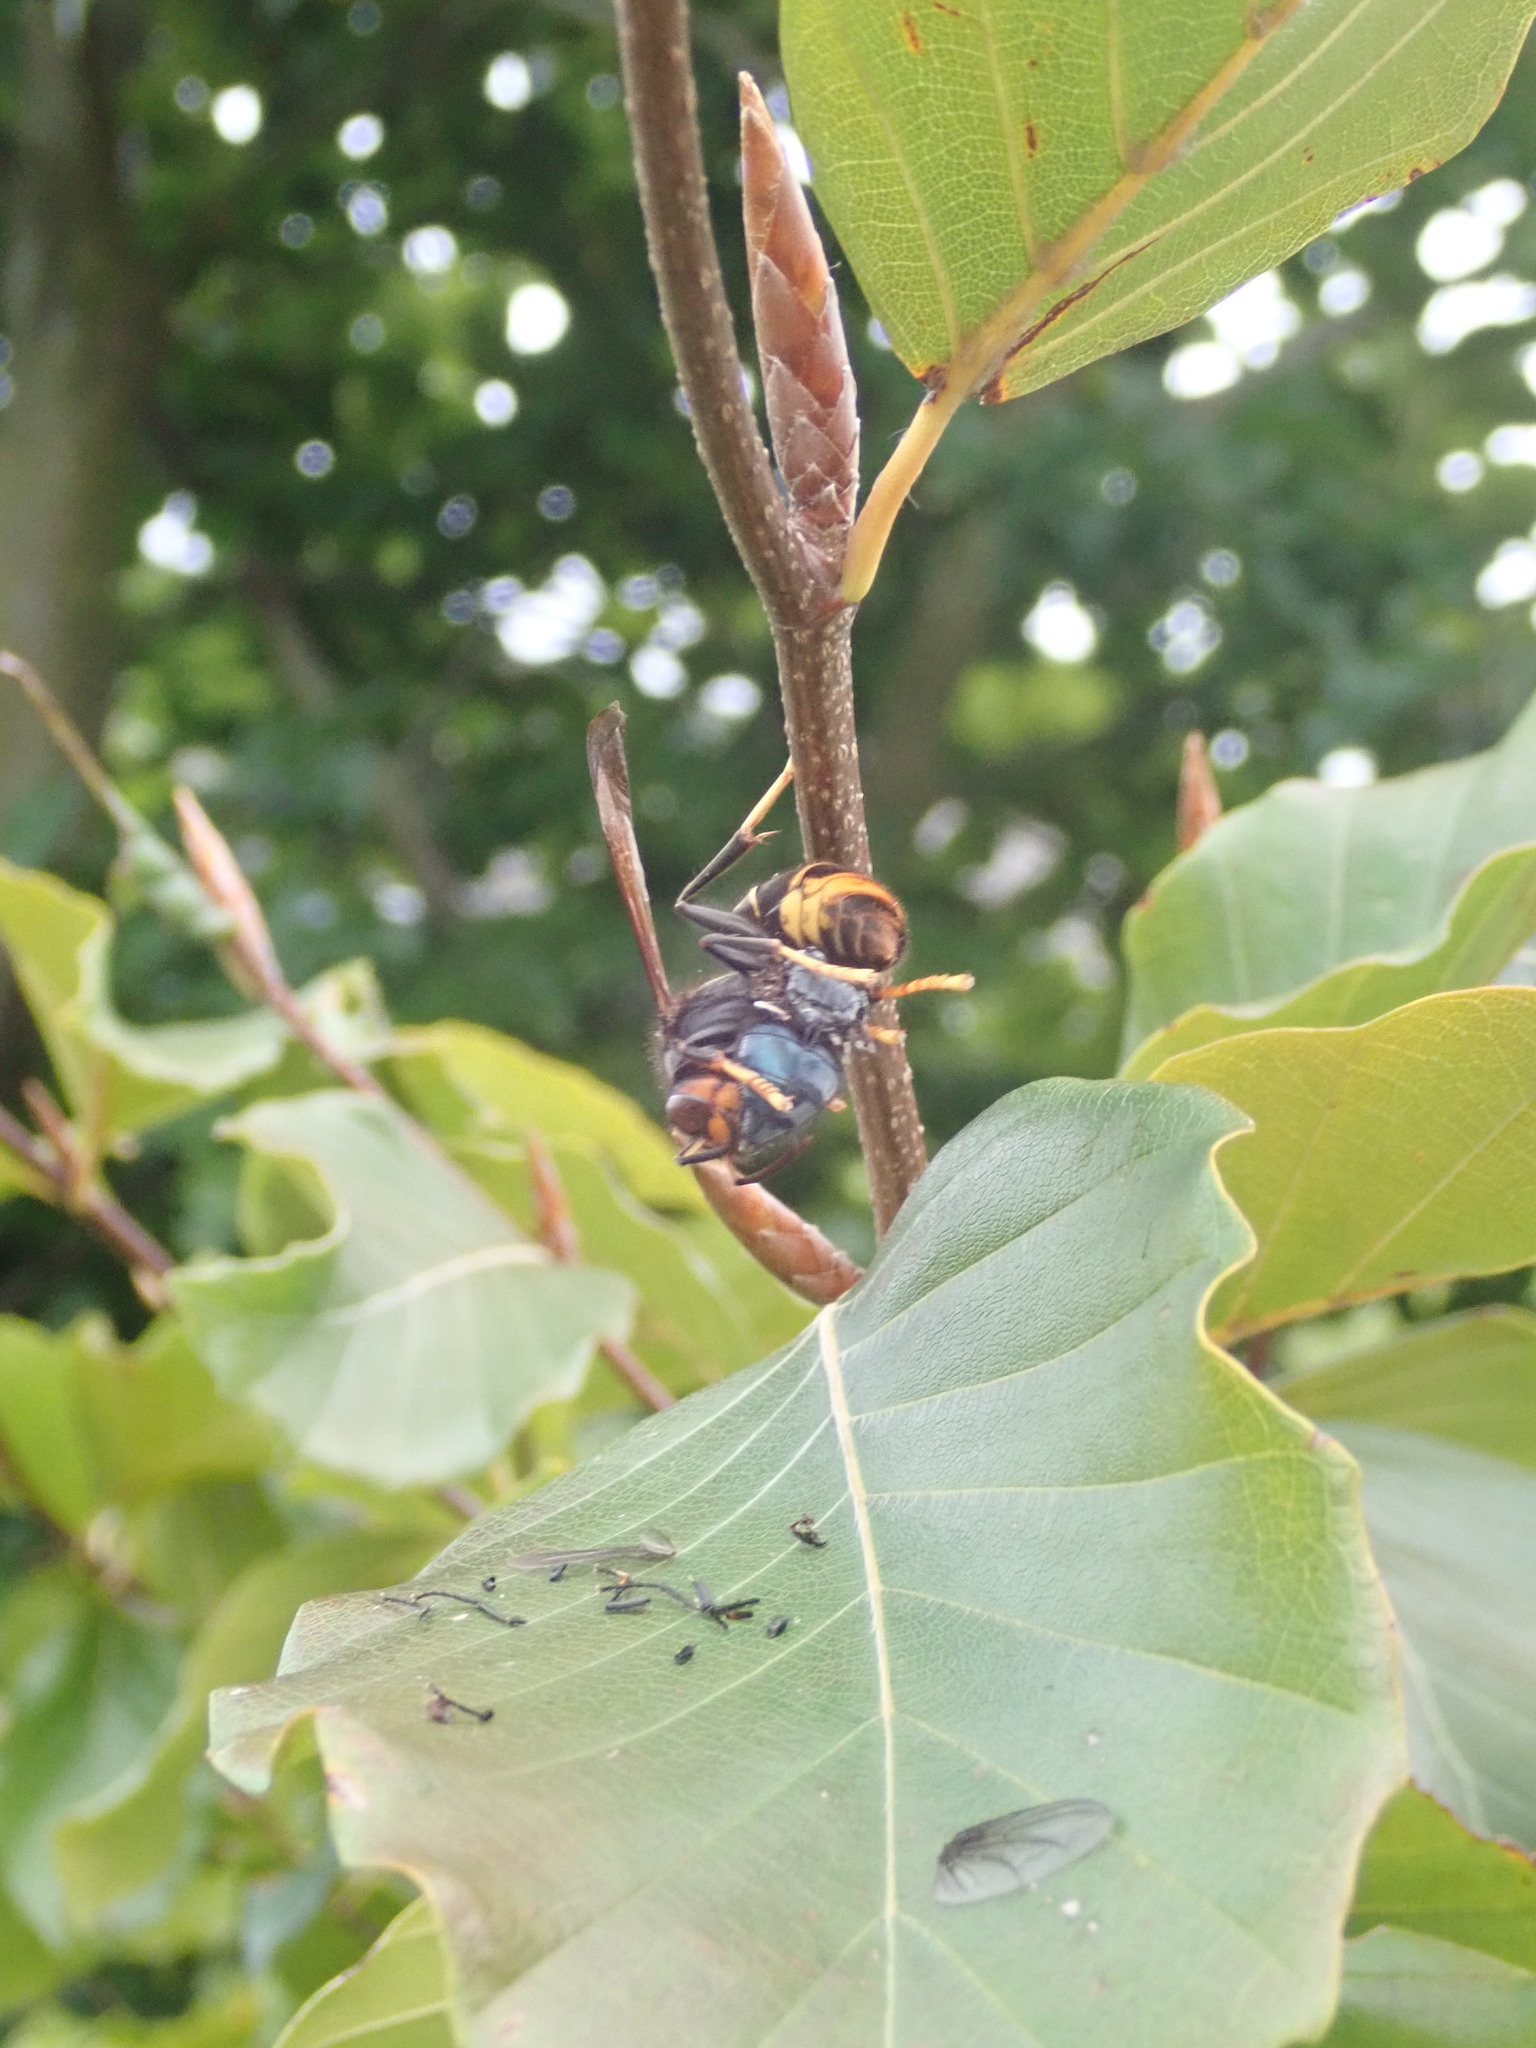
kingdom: Animalia
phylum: Arthropoda
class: Insecta
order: Hymenoptera
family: Vespidae
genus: Vespa
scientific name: Vespa velutina
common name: Asian hornet
